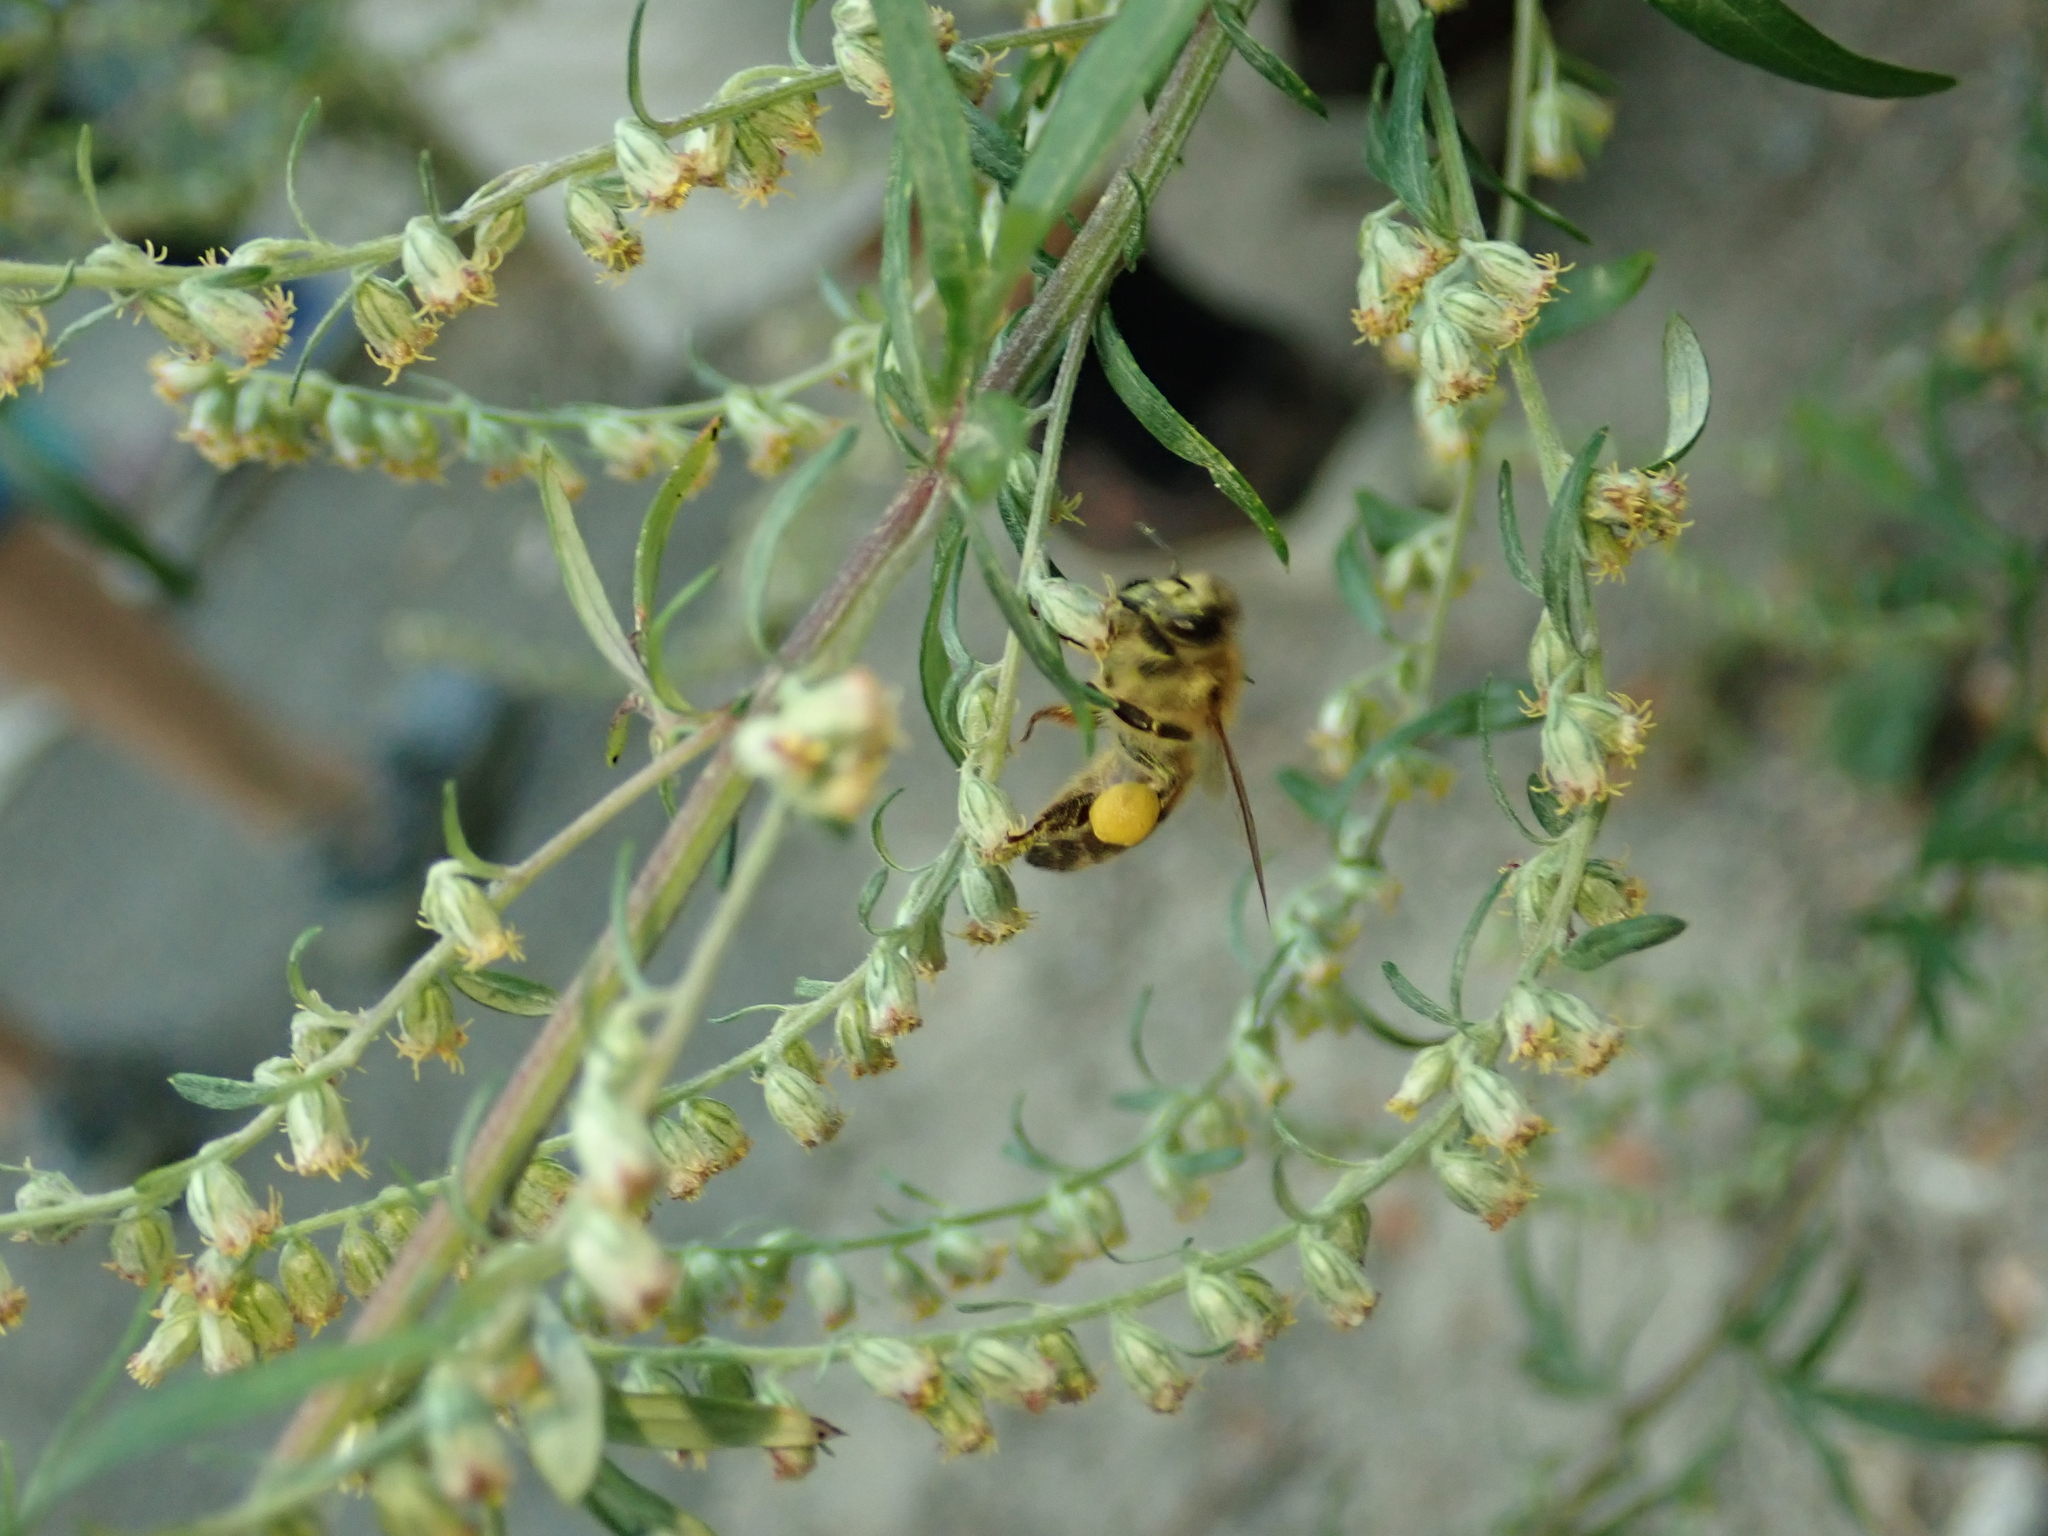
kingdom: Plantae
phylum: Tracheophyta
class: Magnoliopsida
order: Asterales
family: Asteraceae
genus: Artemisia
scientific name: Artemisia vulgaris
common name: Mugwort
